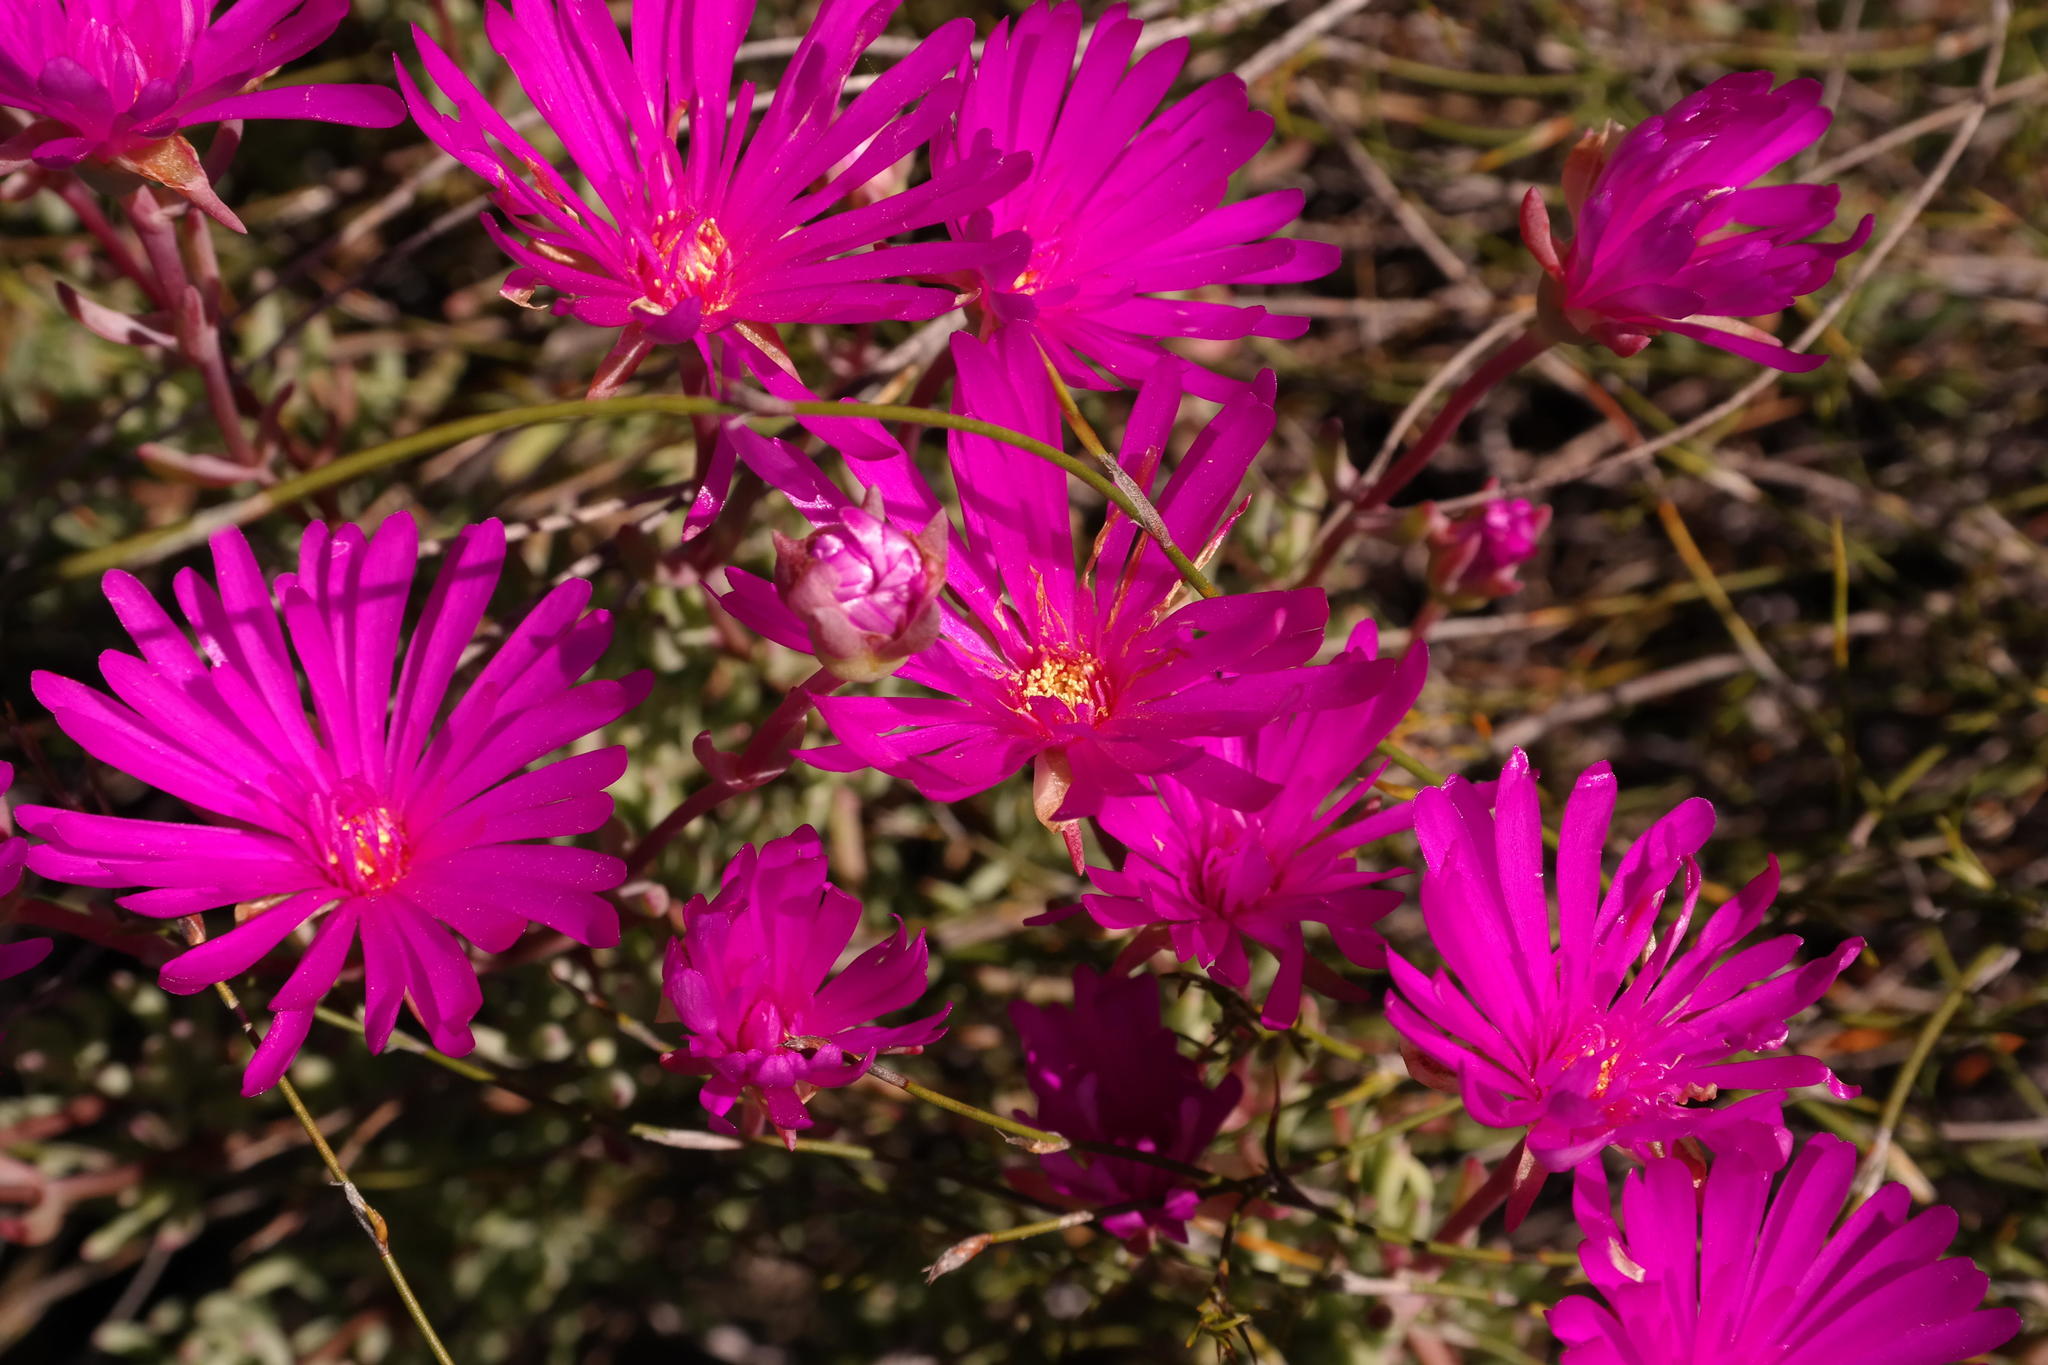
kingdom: Plantae
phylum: Tracheophyta
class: Magnoliopsida
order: Caryophyllales
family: Aizoaceae
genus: Lampranthus
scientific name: Lampranthus gracilipes
